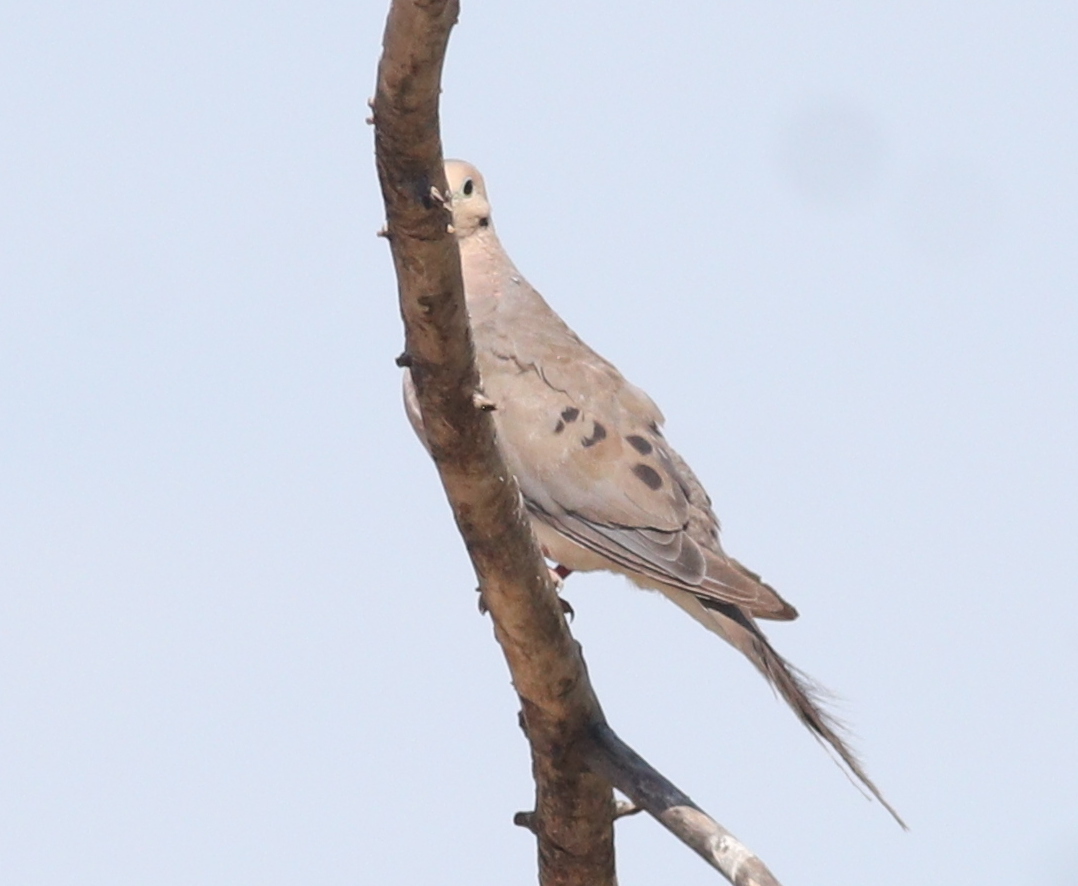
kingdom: Animalia
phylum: Chordata
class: Aves
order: Columbiformes
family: Columbidae
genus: Zenaida
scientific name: Zenaida macroura
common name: Mourning dove
